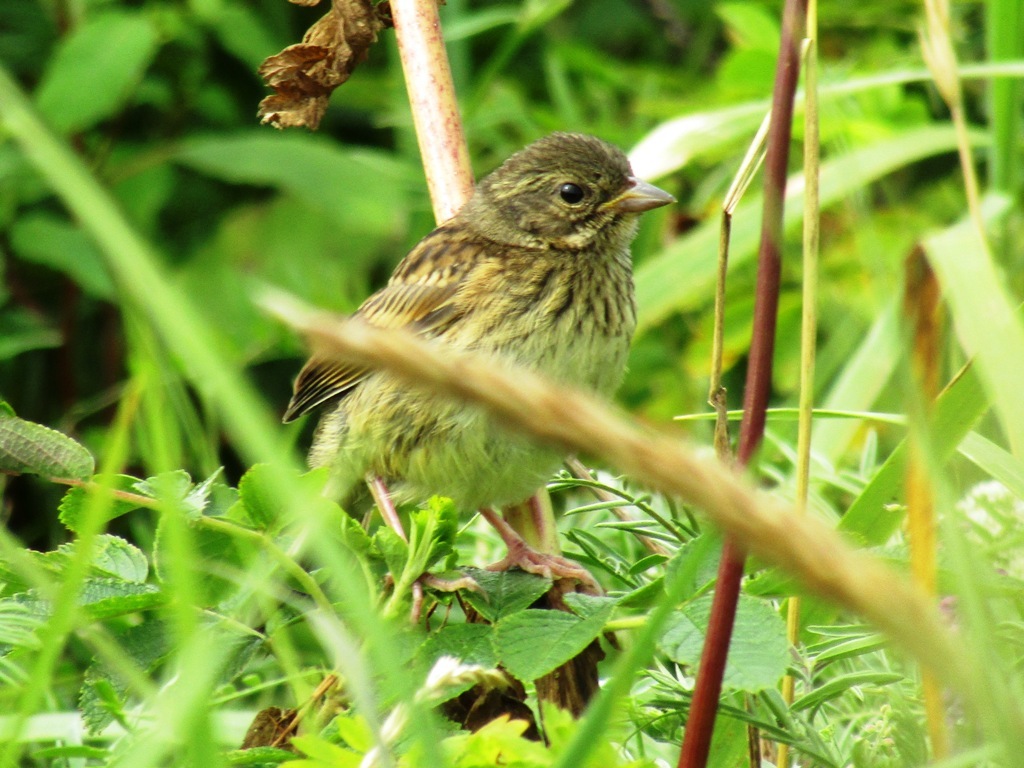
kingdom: Animalia
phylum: Chordata
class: Aves
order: Passeriformes
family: Emberizidae
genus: Emberiza
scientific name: Emberiza personata
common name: Masked bunting
